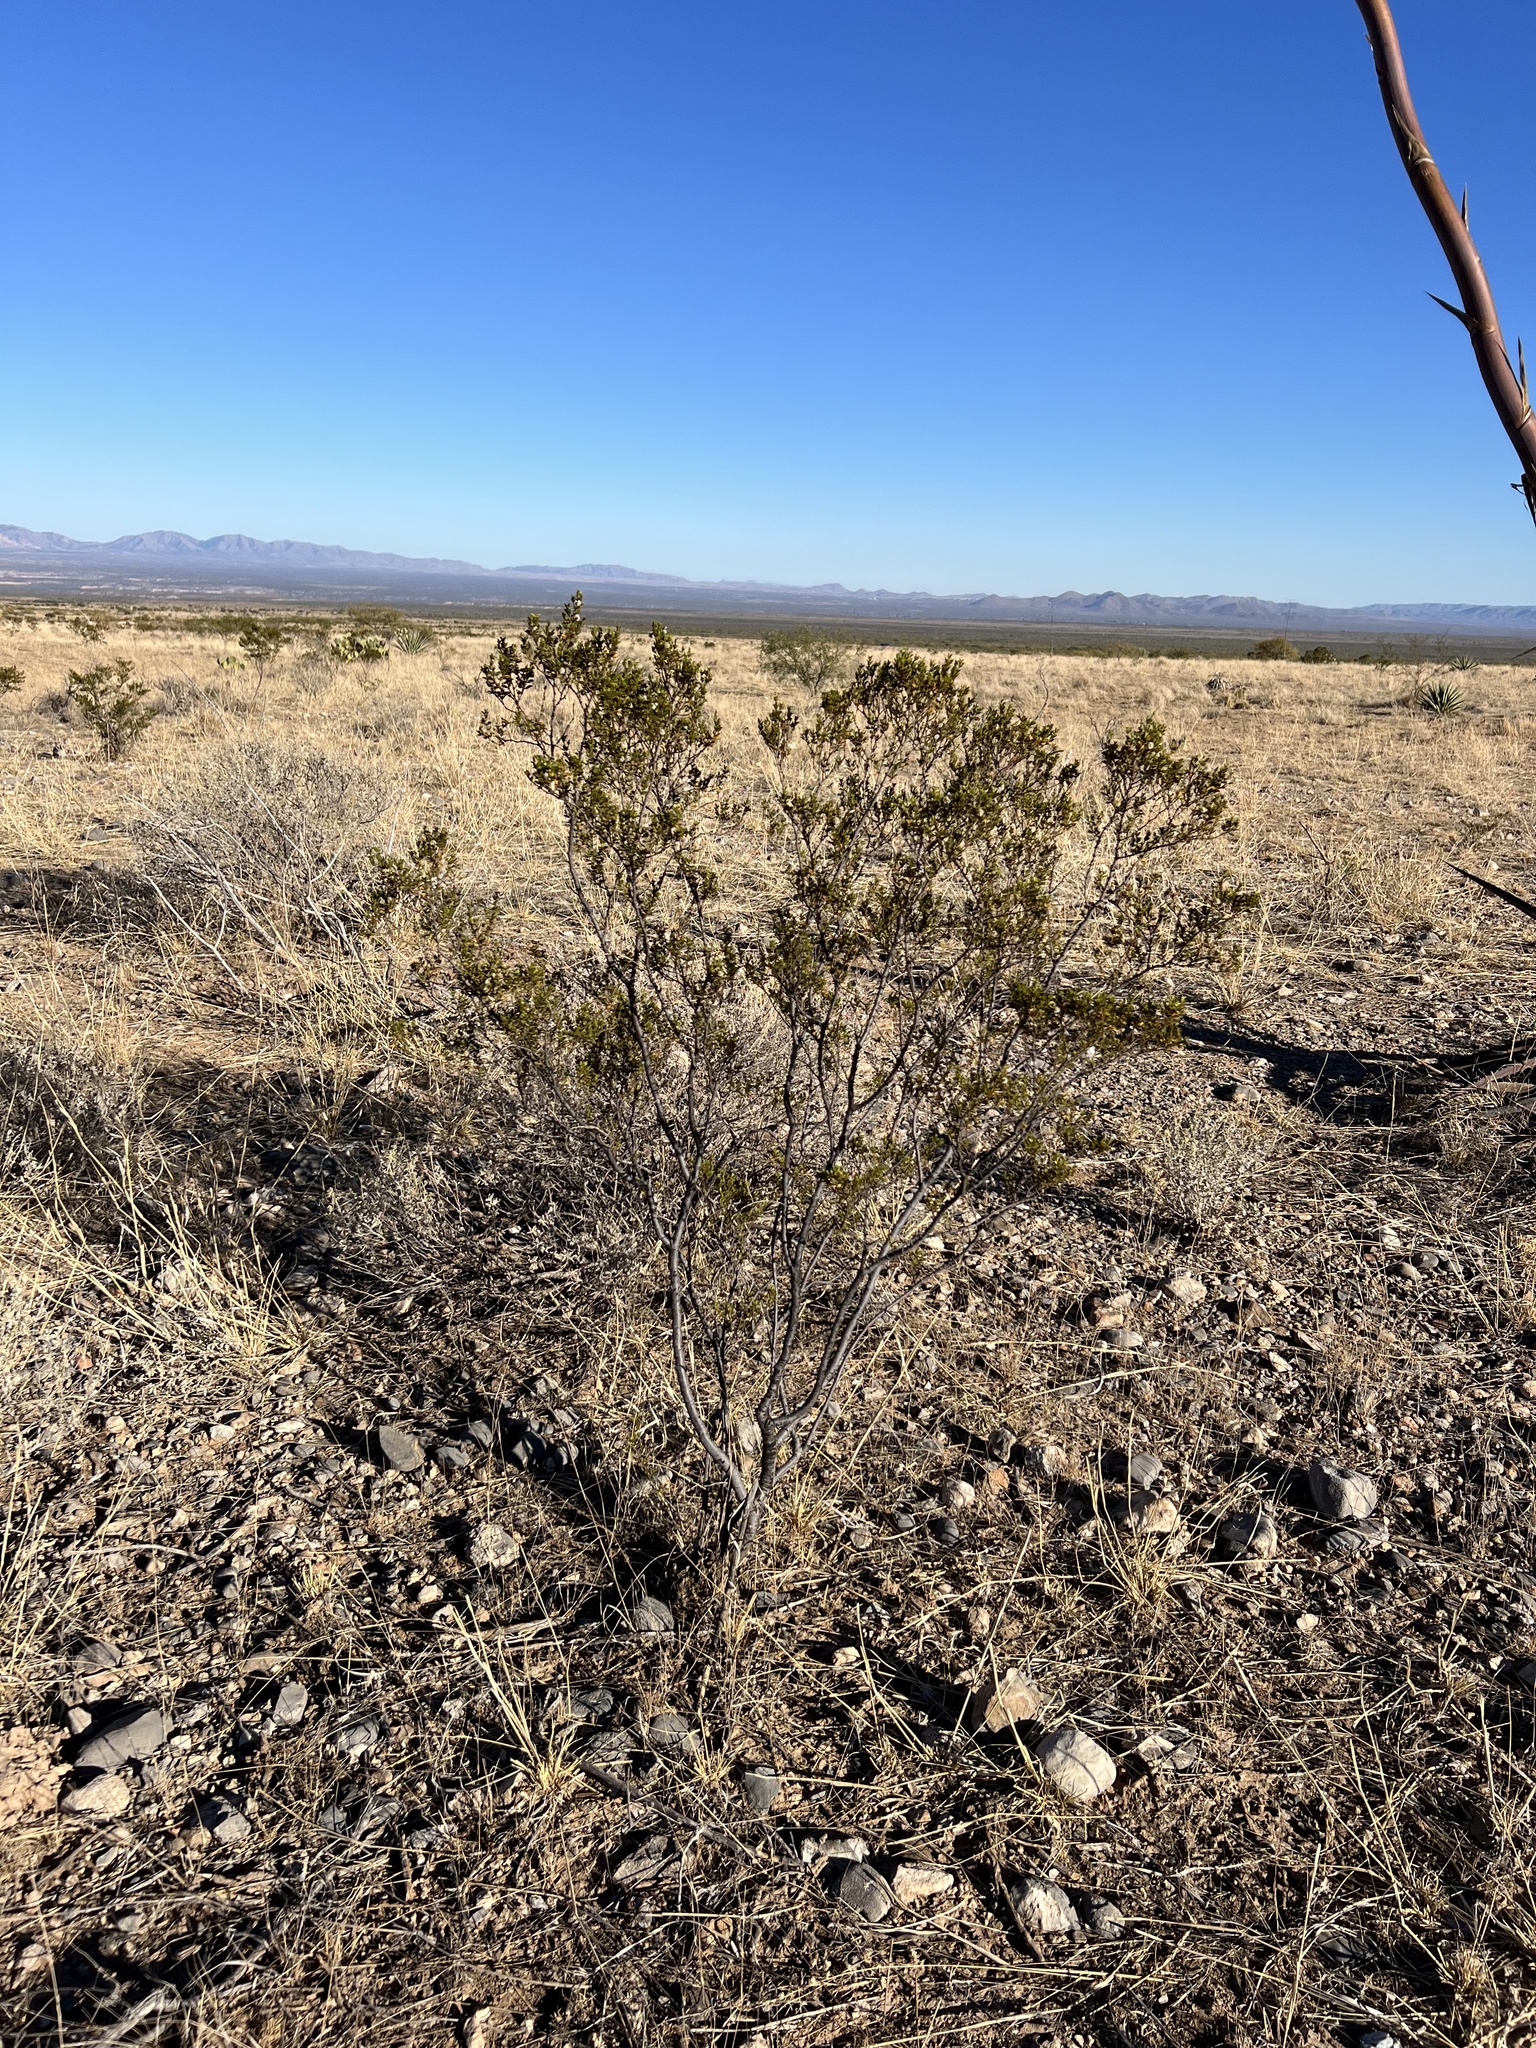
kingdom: Plantae
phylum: Tracheophyta
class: Magnoliopsida
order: Zygophyllales
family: Zygophyllaceae
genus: Larrea
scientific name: Larrea tridentata
